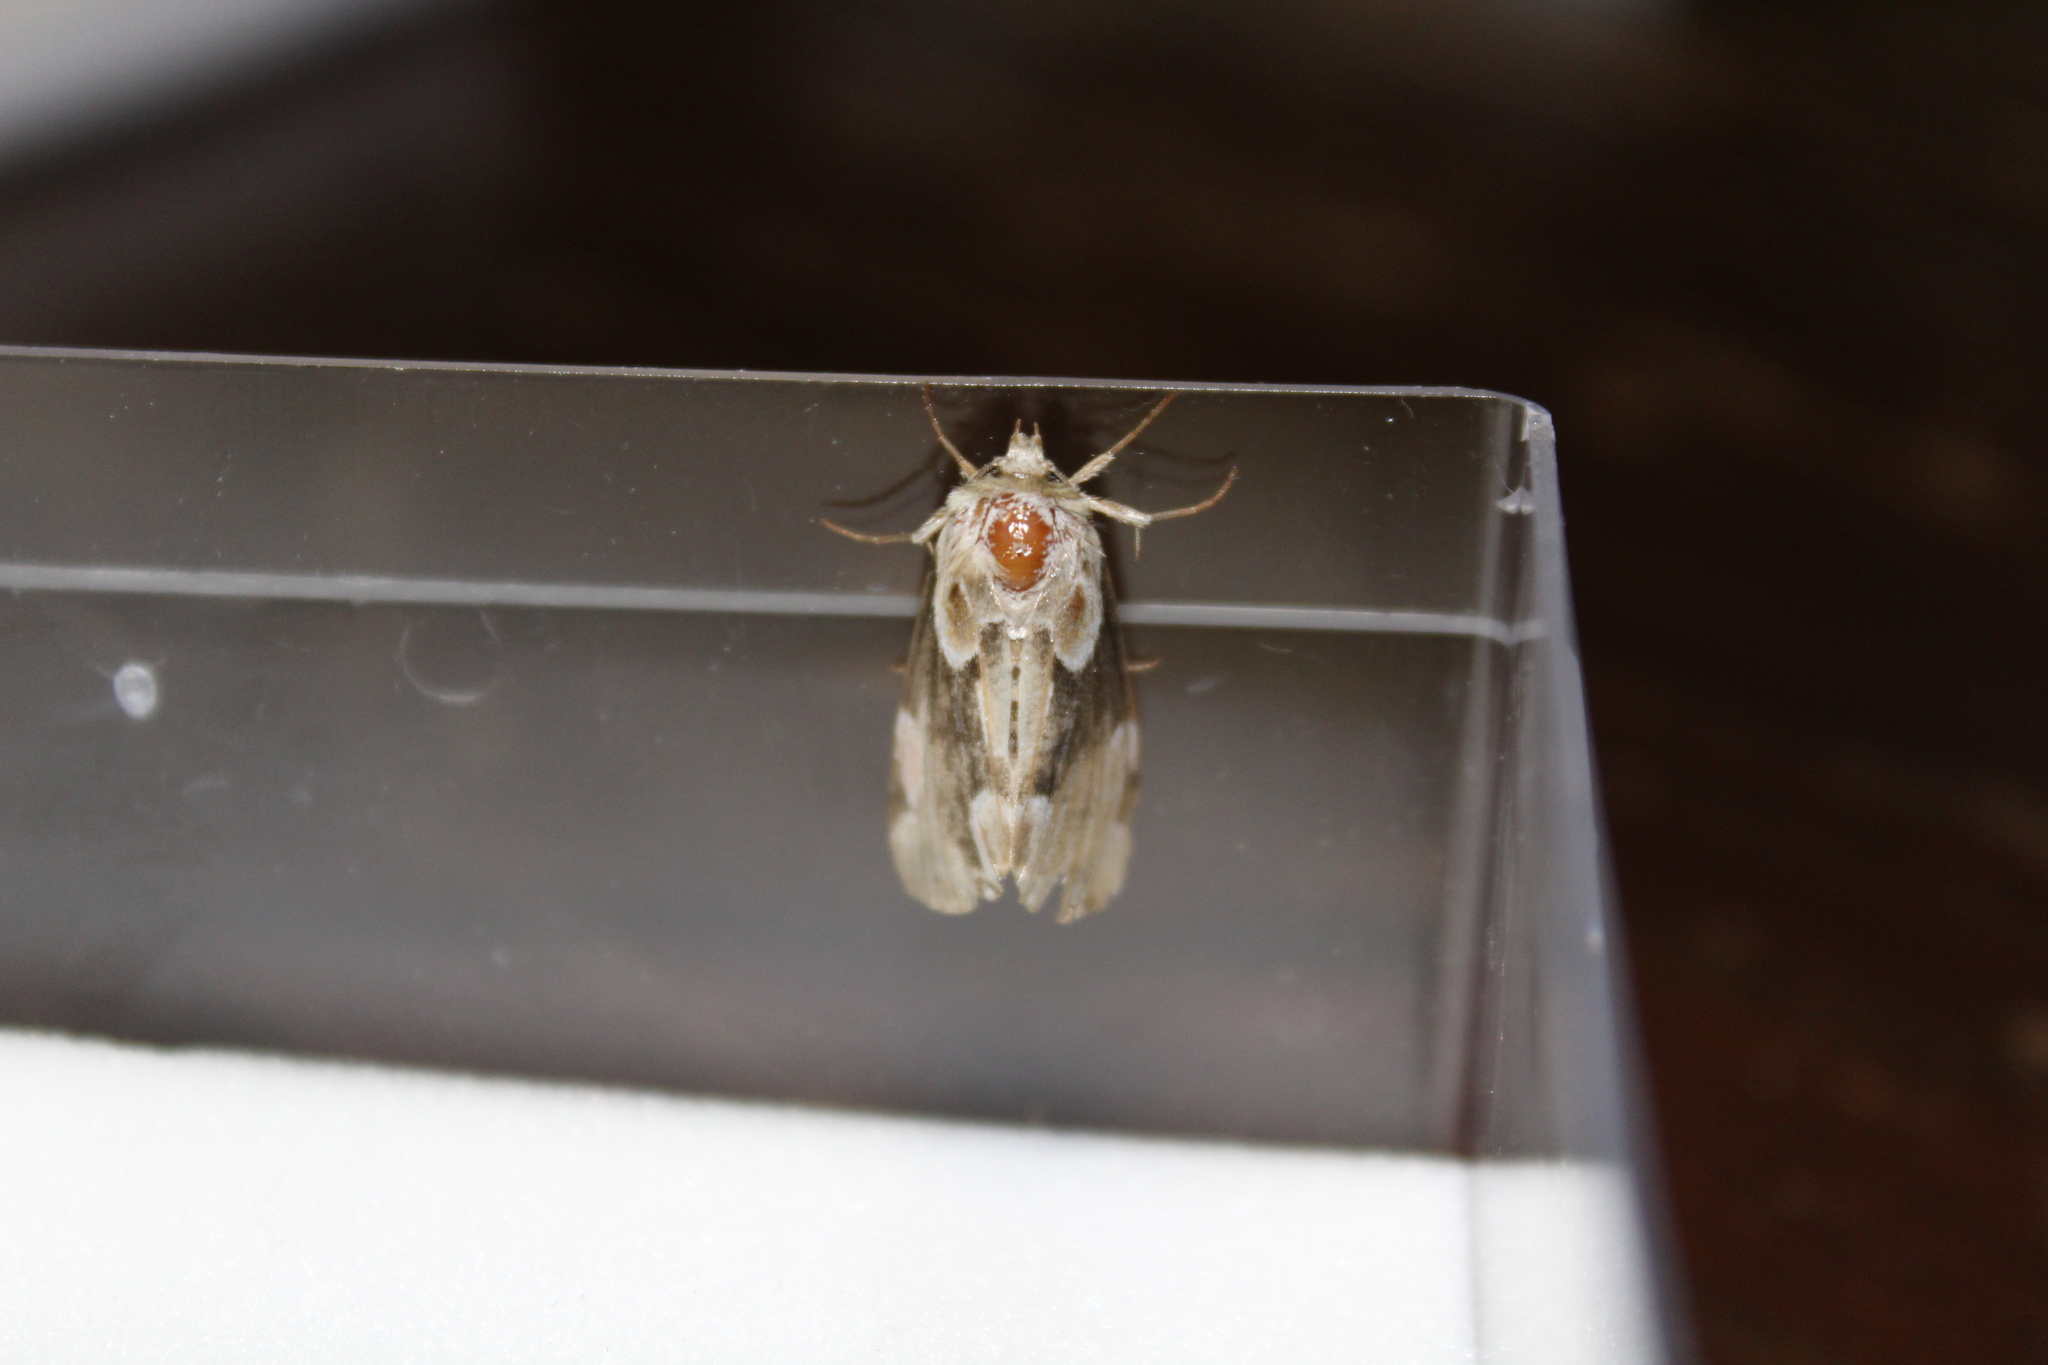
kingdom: Animalia
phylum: Arthropoda
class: Insecta
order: Lepidoptera
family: Drepanidae
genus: Thyatira
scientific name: Thyatira batis
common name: Peach blossom
